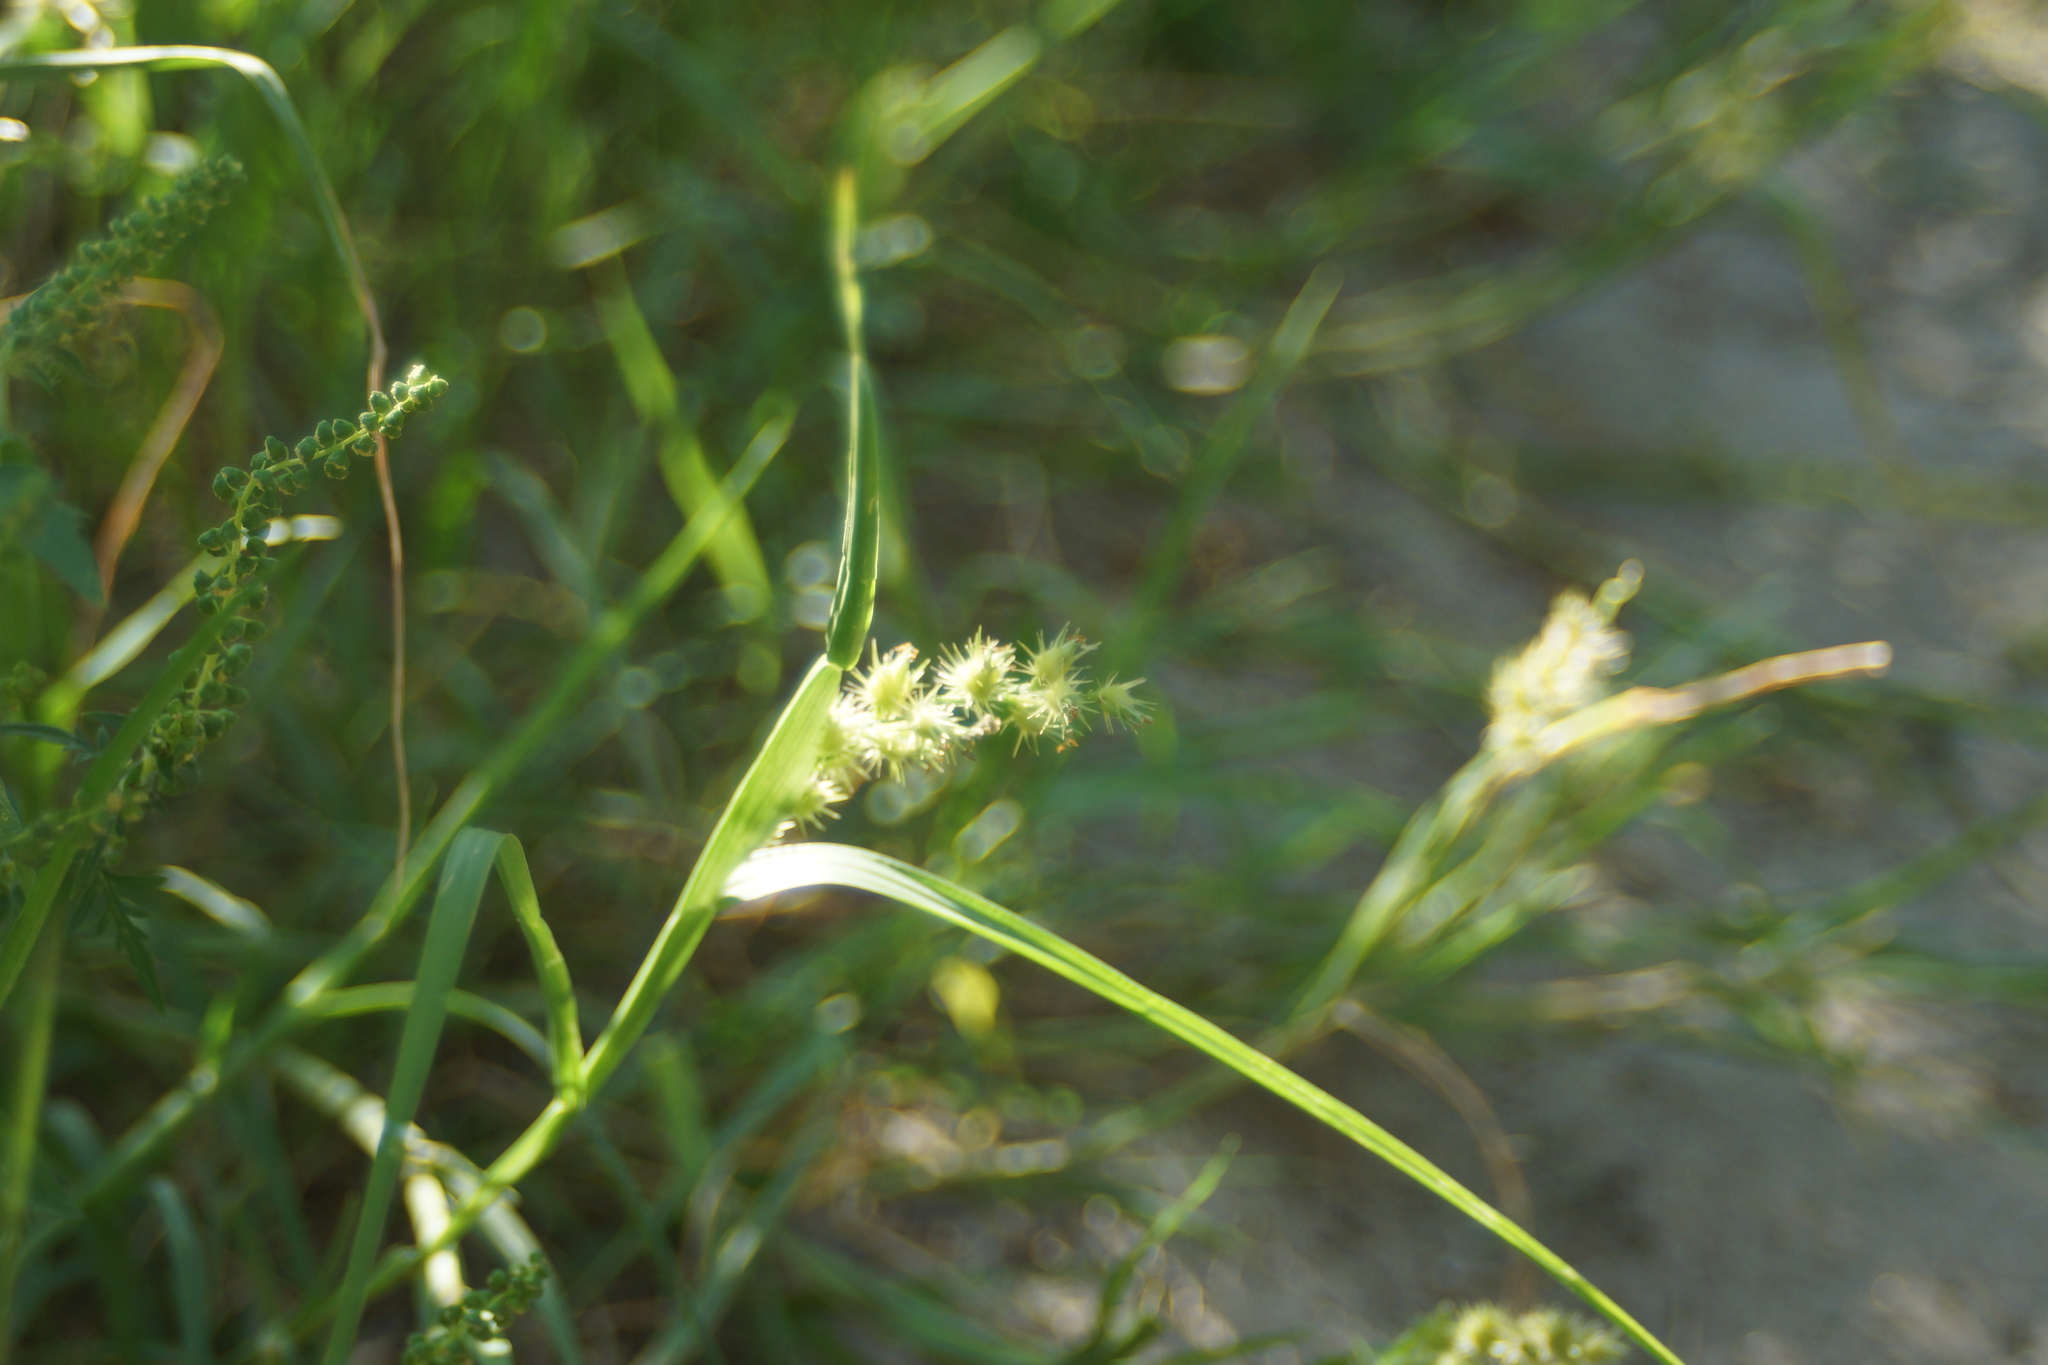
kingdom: Plantae
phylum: Tracheophyta
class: Liliopsida
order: Poales
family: Poaceae
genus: Cenchrus
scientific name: Cenchrus longispinus
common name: Mat sandbur
